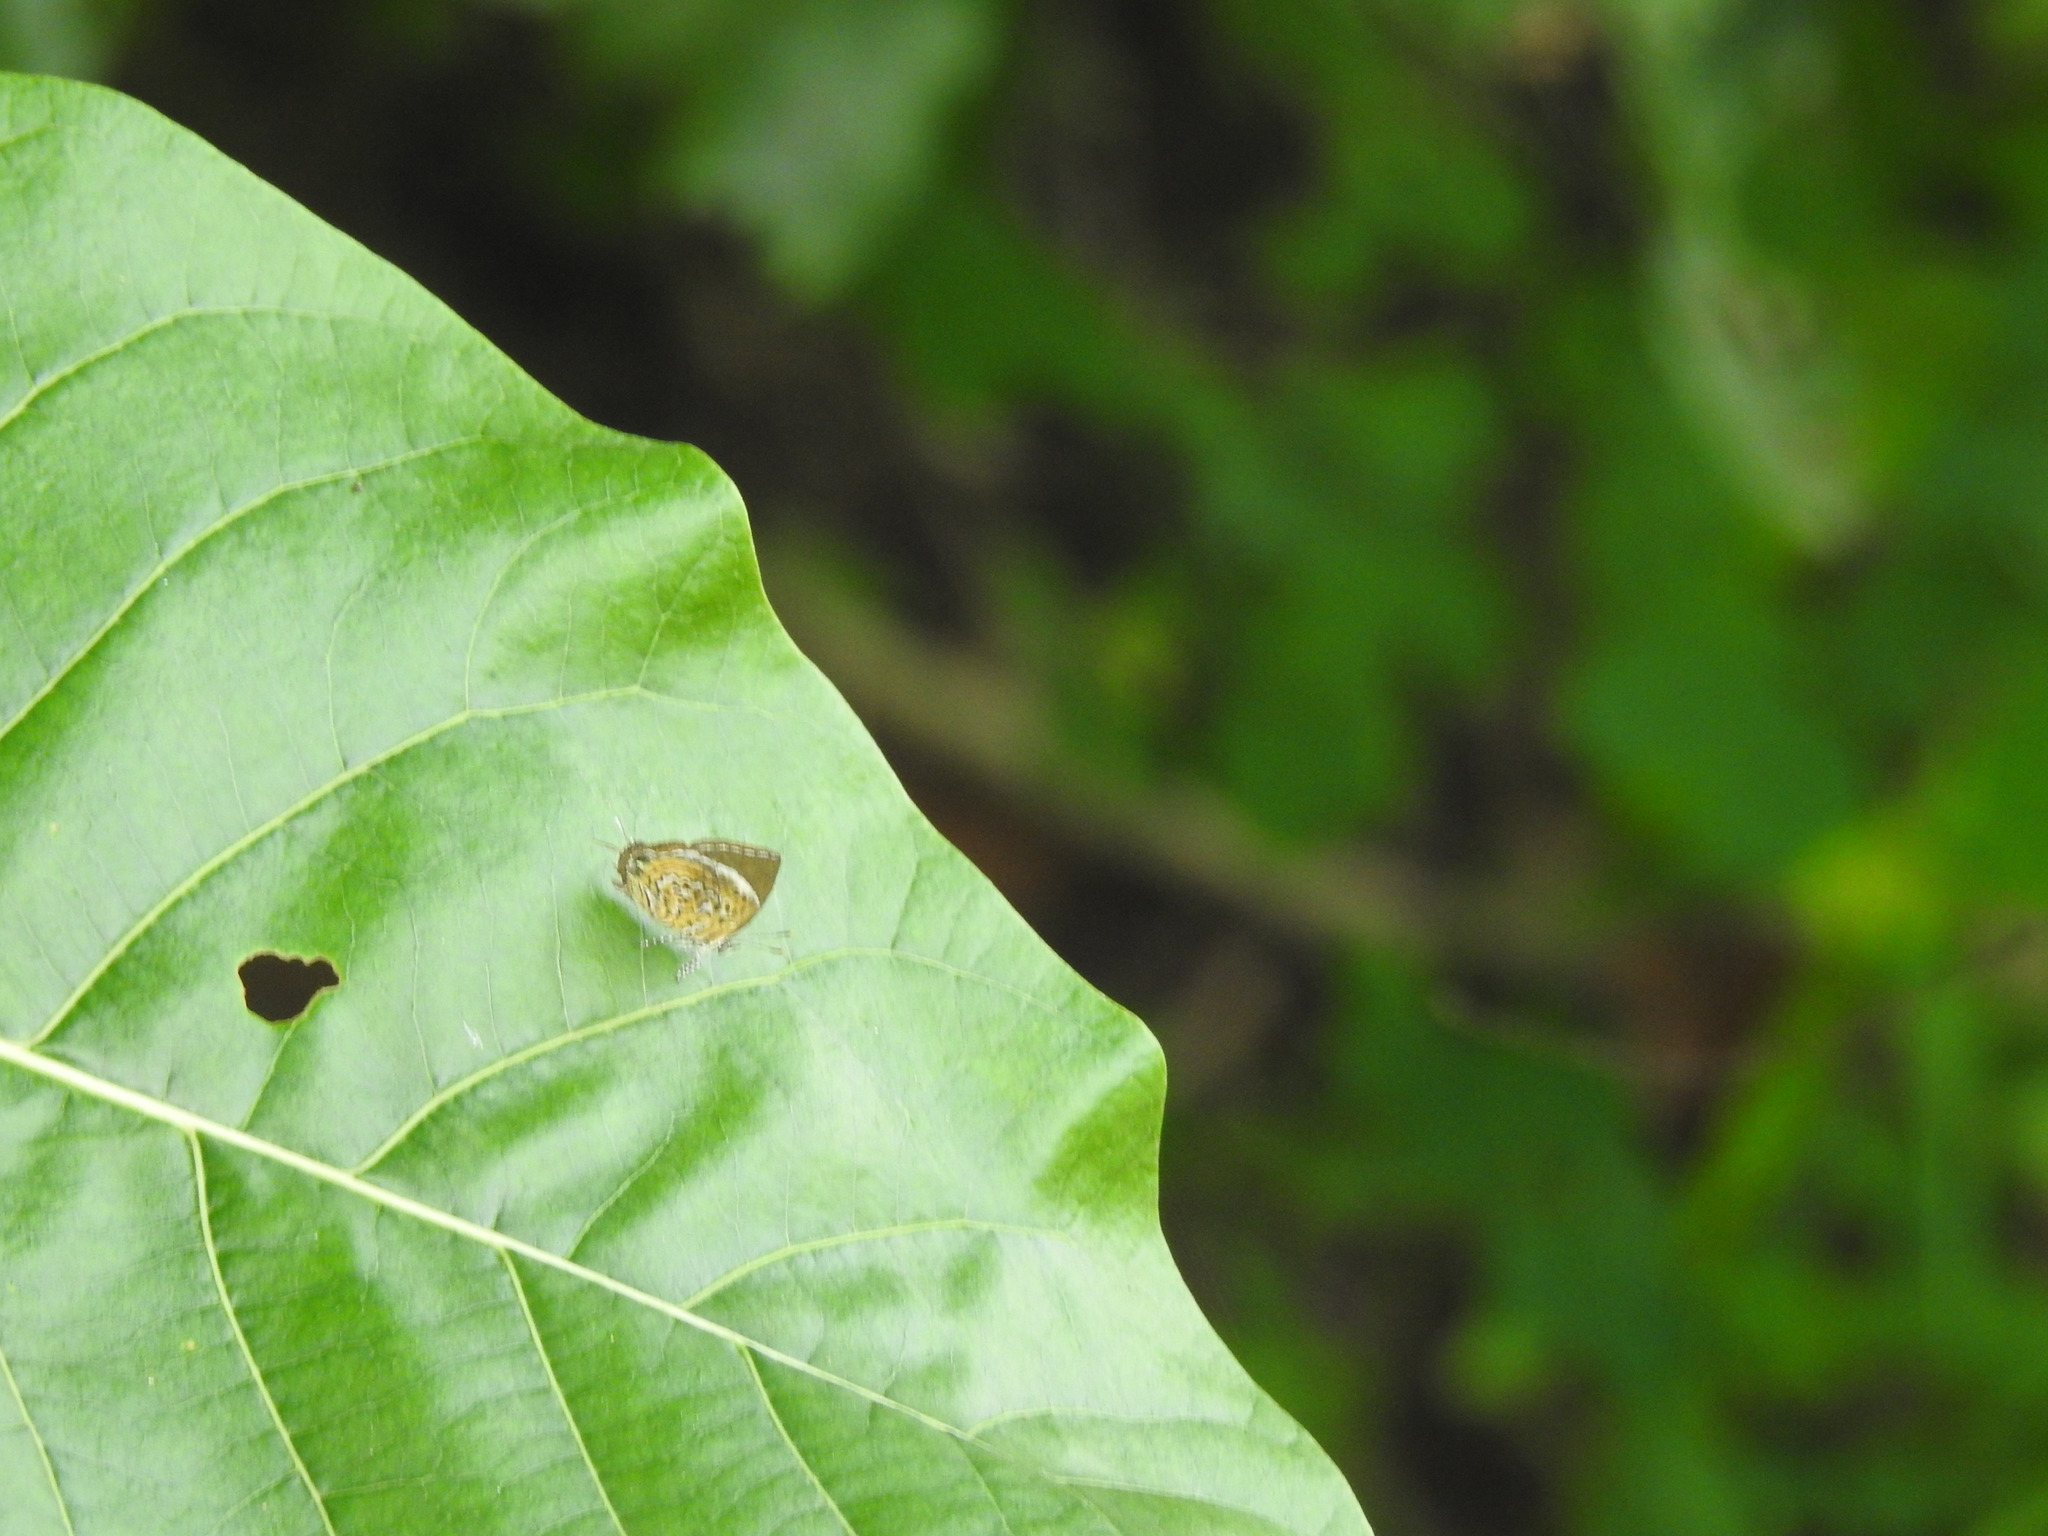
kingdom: Animalia
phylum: Arthropoda
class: Insecta
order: Lepidoptera
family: Lycaenidae
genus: Rathinda
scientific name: Rathinda amor
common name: Monkey puzzle
